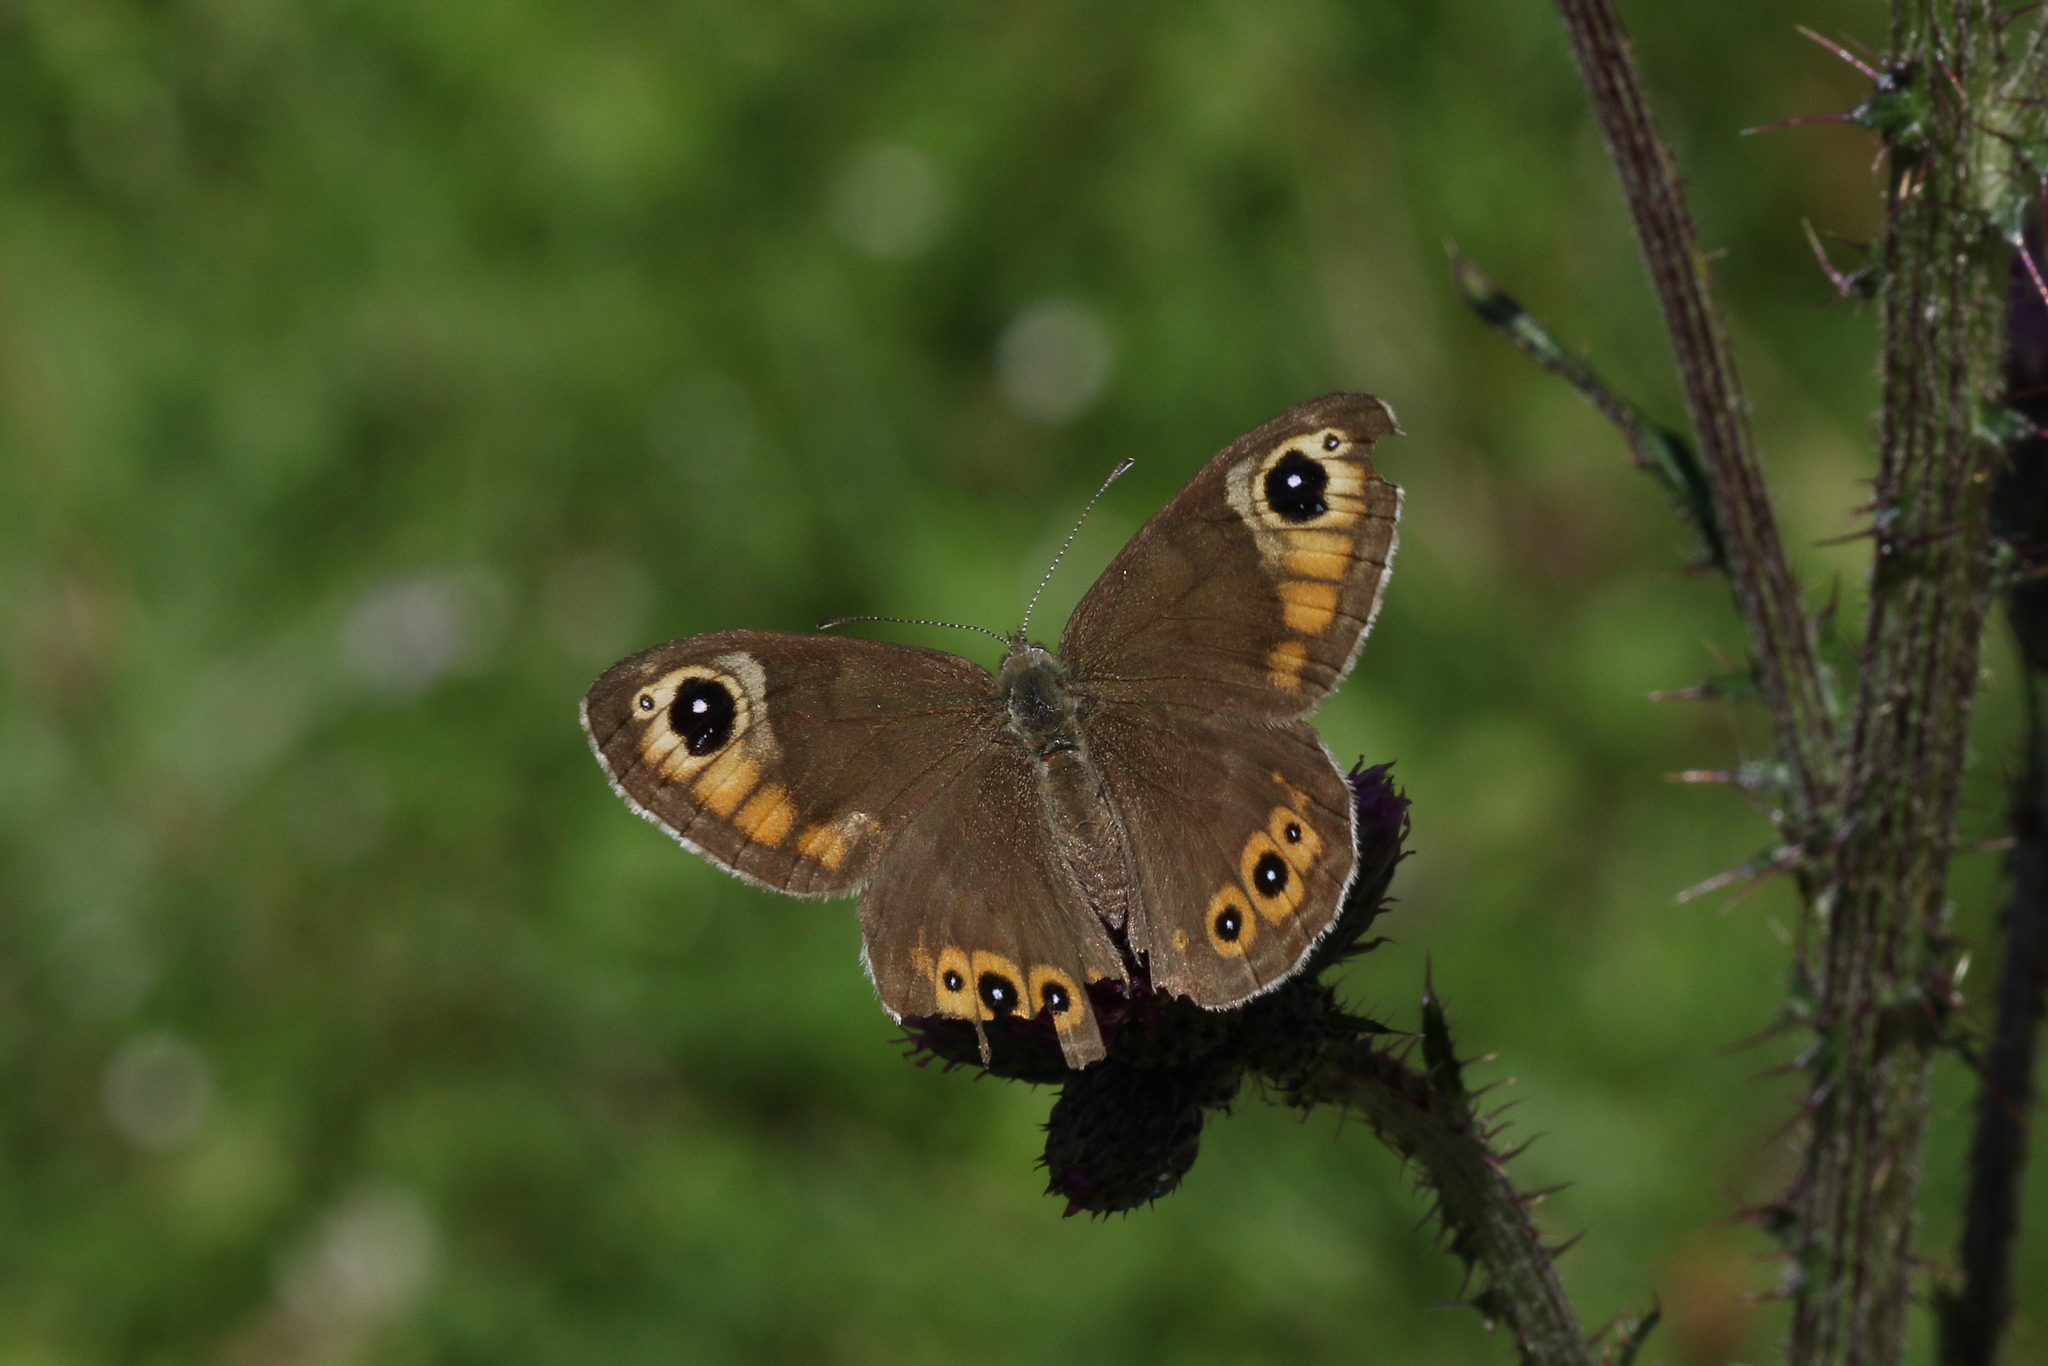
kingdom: Animalia
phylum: Arthropoda
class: Insecta
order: Lepidoptera
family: Nymphalidae
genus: Pararge
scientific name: Pararge Lasiommata maera
